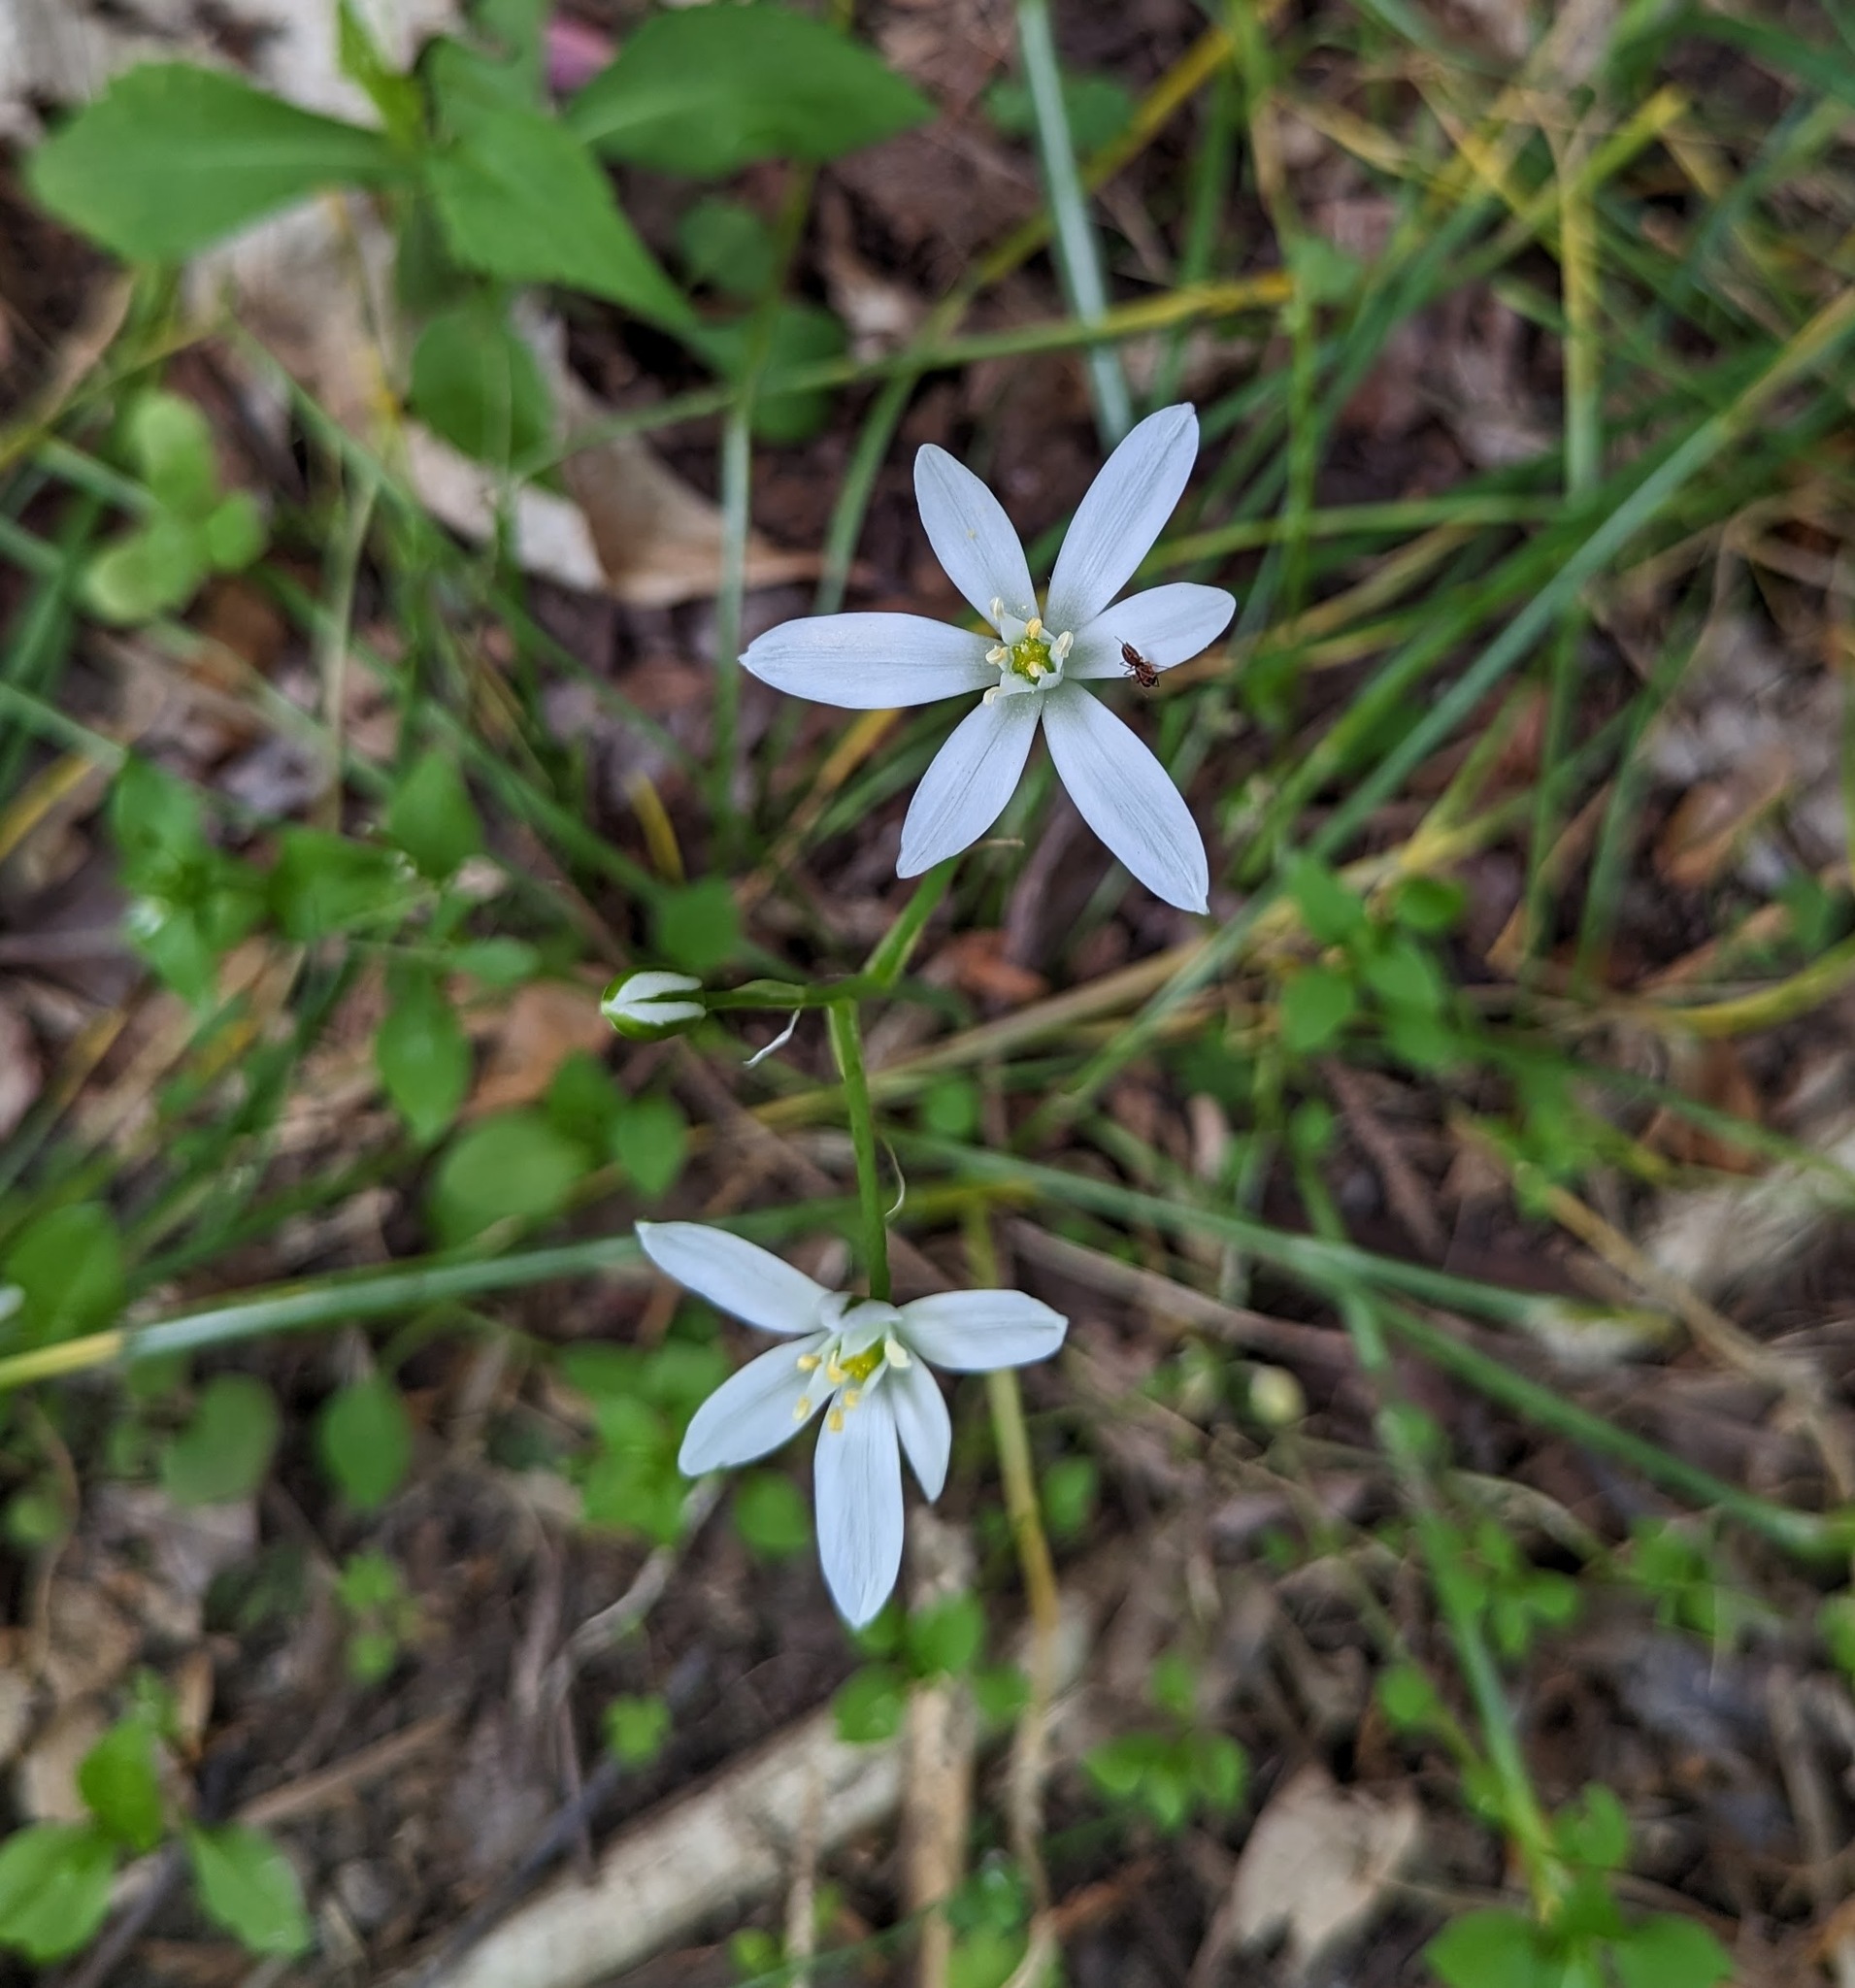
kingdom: Plantae
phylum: Tracheophyta
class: Liliopsida
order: Asparagales
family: Asparagaceae
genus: Ornithogalum
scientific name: Ornithogalum umbellatum
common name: Garden star-of-bethlehem
